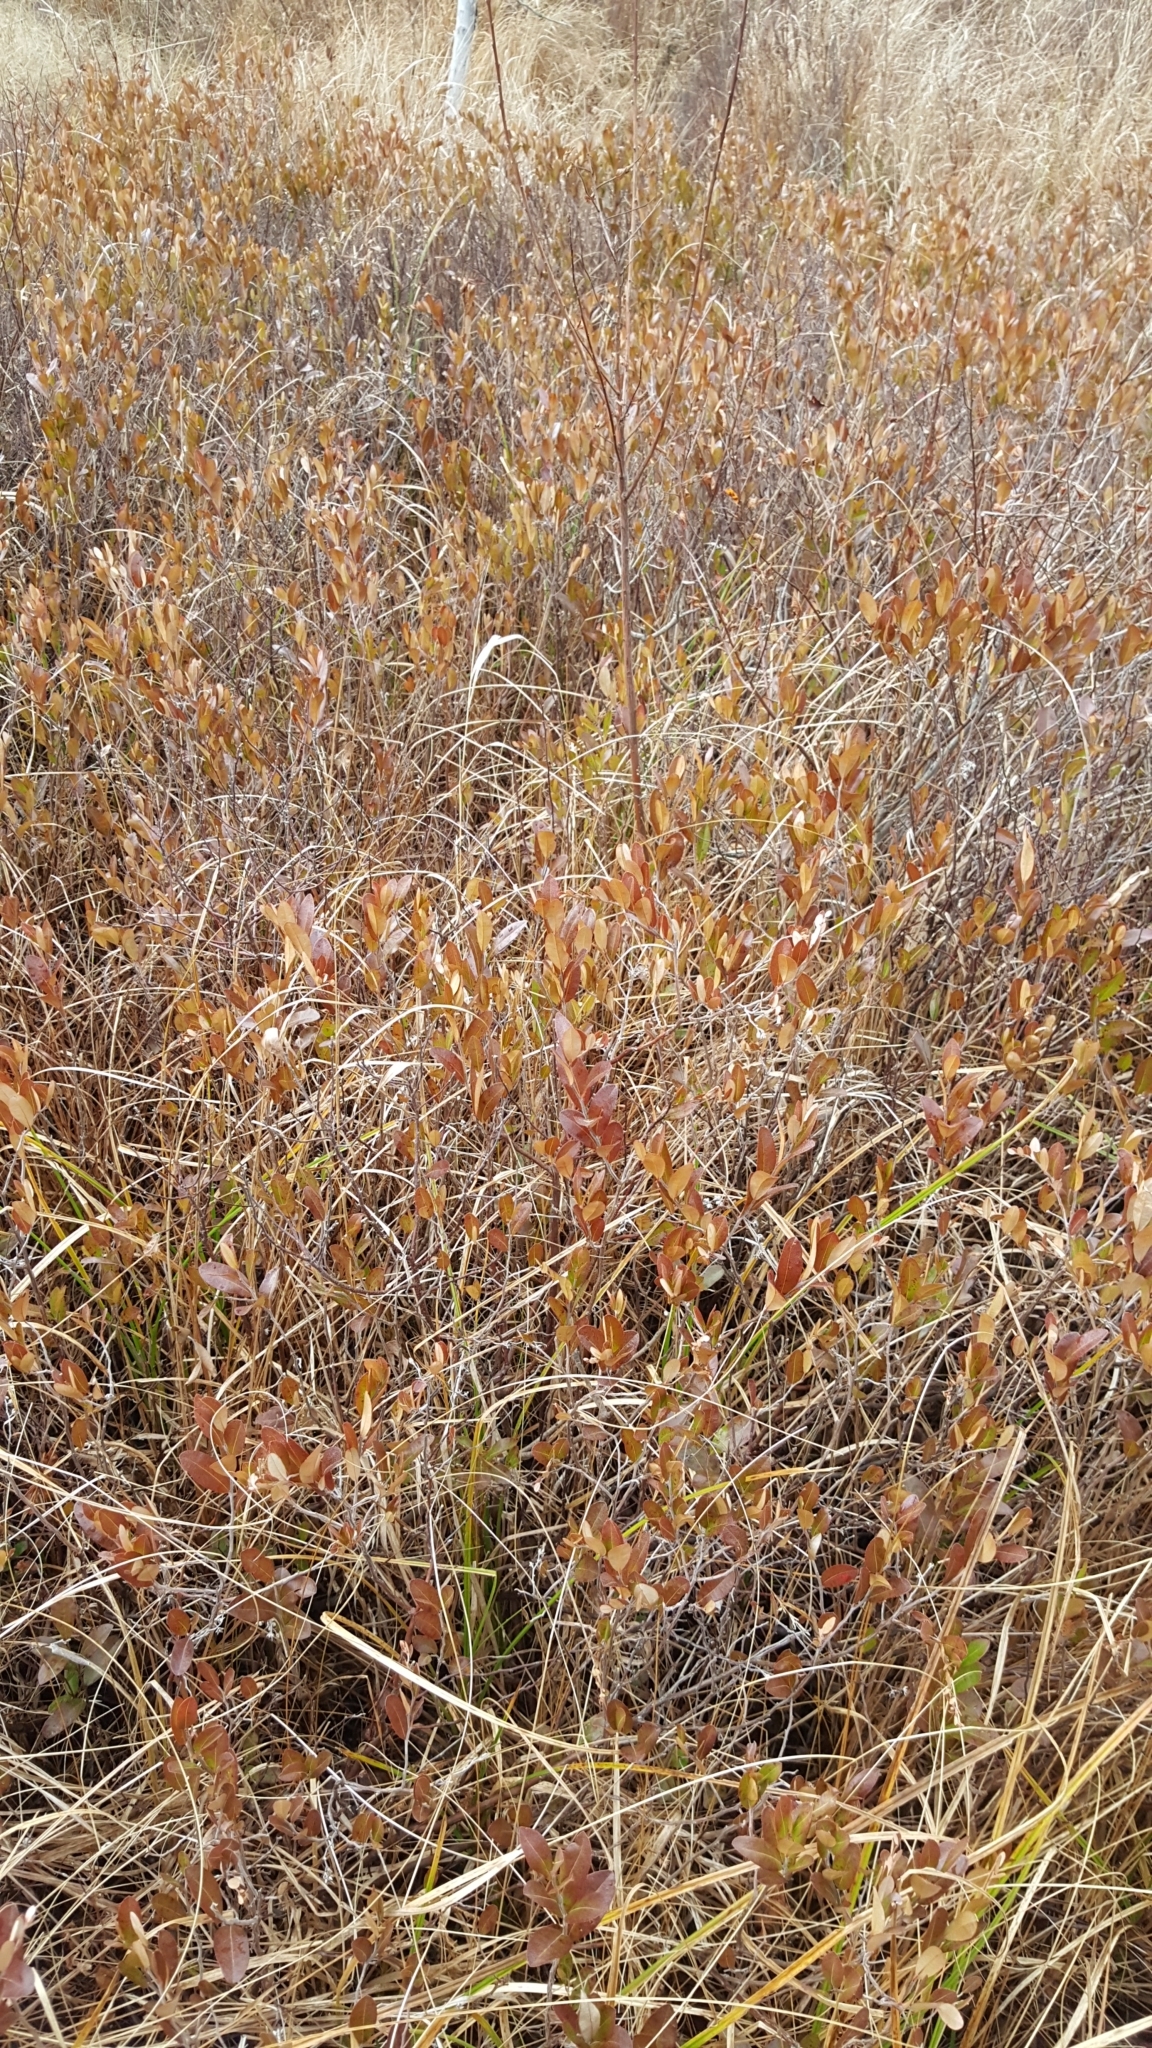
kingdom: Plantae
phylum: Tracheophyta
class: Magnoliopsida
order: Ericales
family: Ericaceae
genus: Chamaedaphne
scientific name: Chamaedaphne calyculata
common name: Leatherleaf
